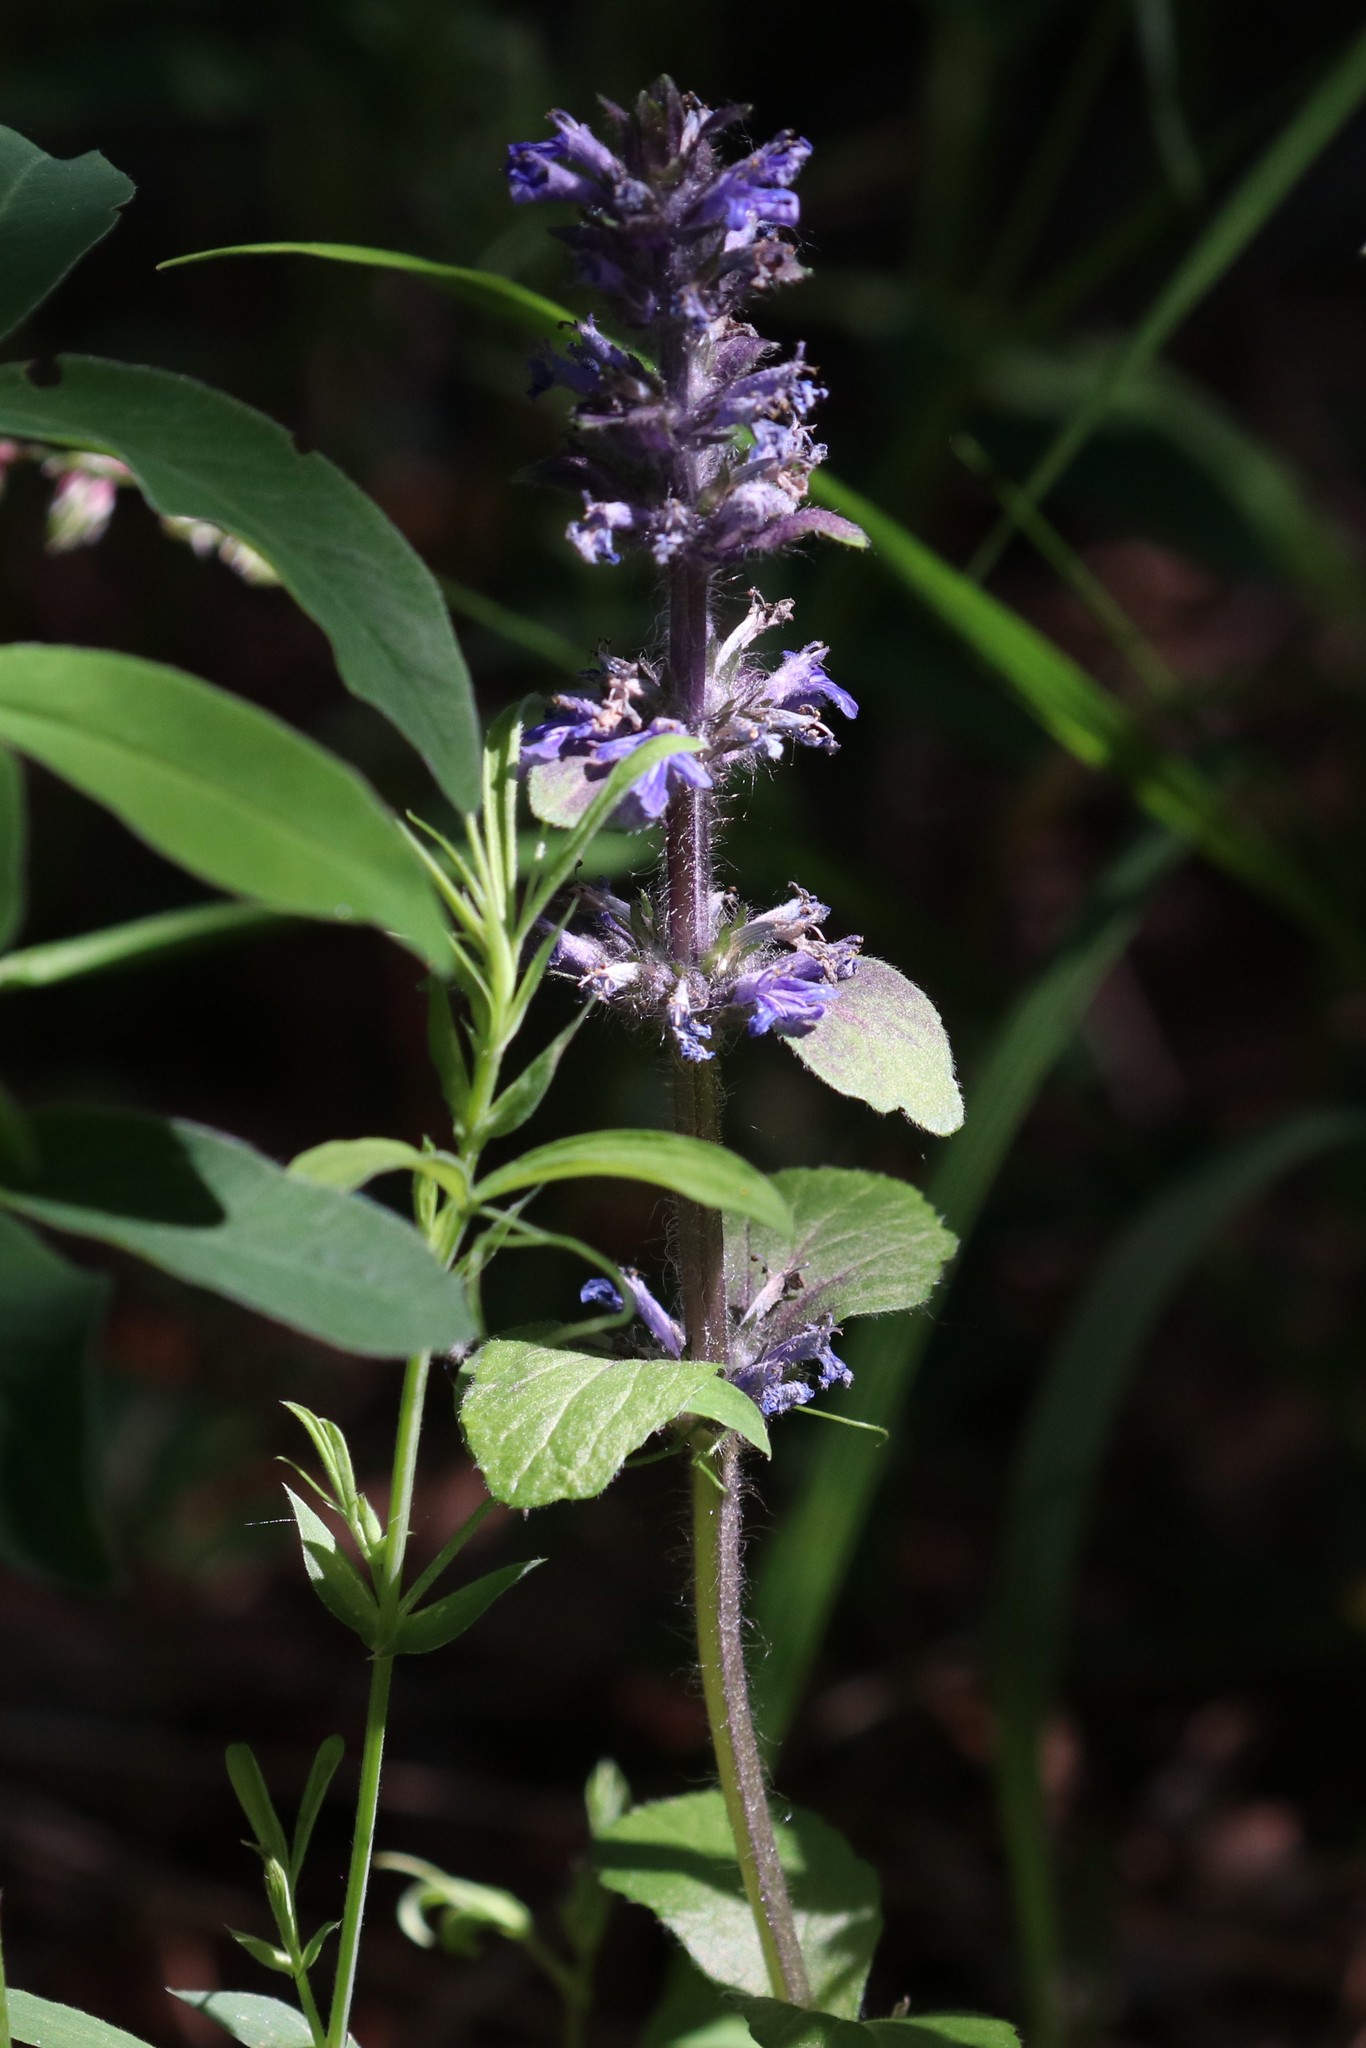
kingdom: Plantae
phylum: Tracheophyta
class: Magnoliopsida
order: Lamiales
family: Lamiaceae
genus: Ajuga
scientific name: Ajuga reptans
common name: Bugle
